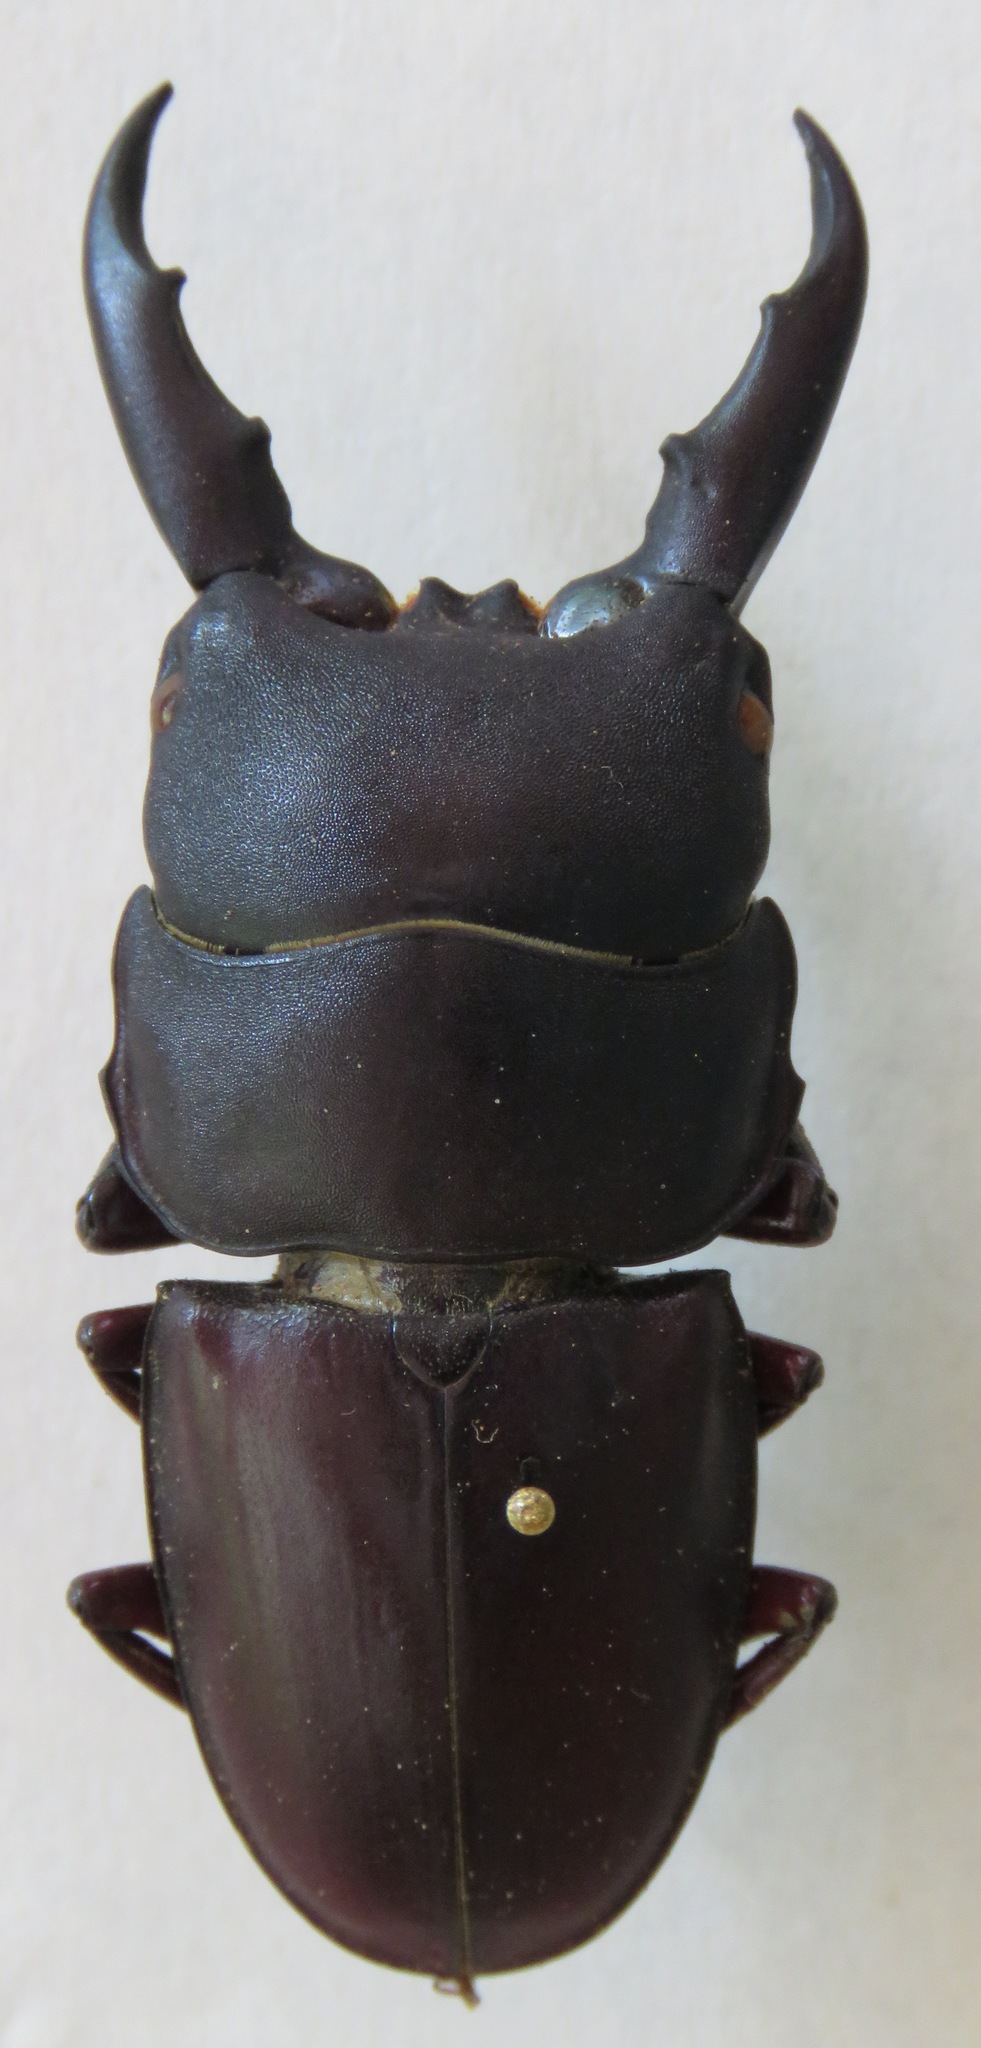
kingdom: Animalia
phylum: Arthropoda
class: Insecta
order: Coleoptera
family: Lucanidae
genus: Dorcus
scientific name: Dorcus saiga
